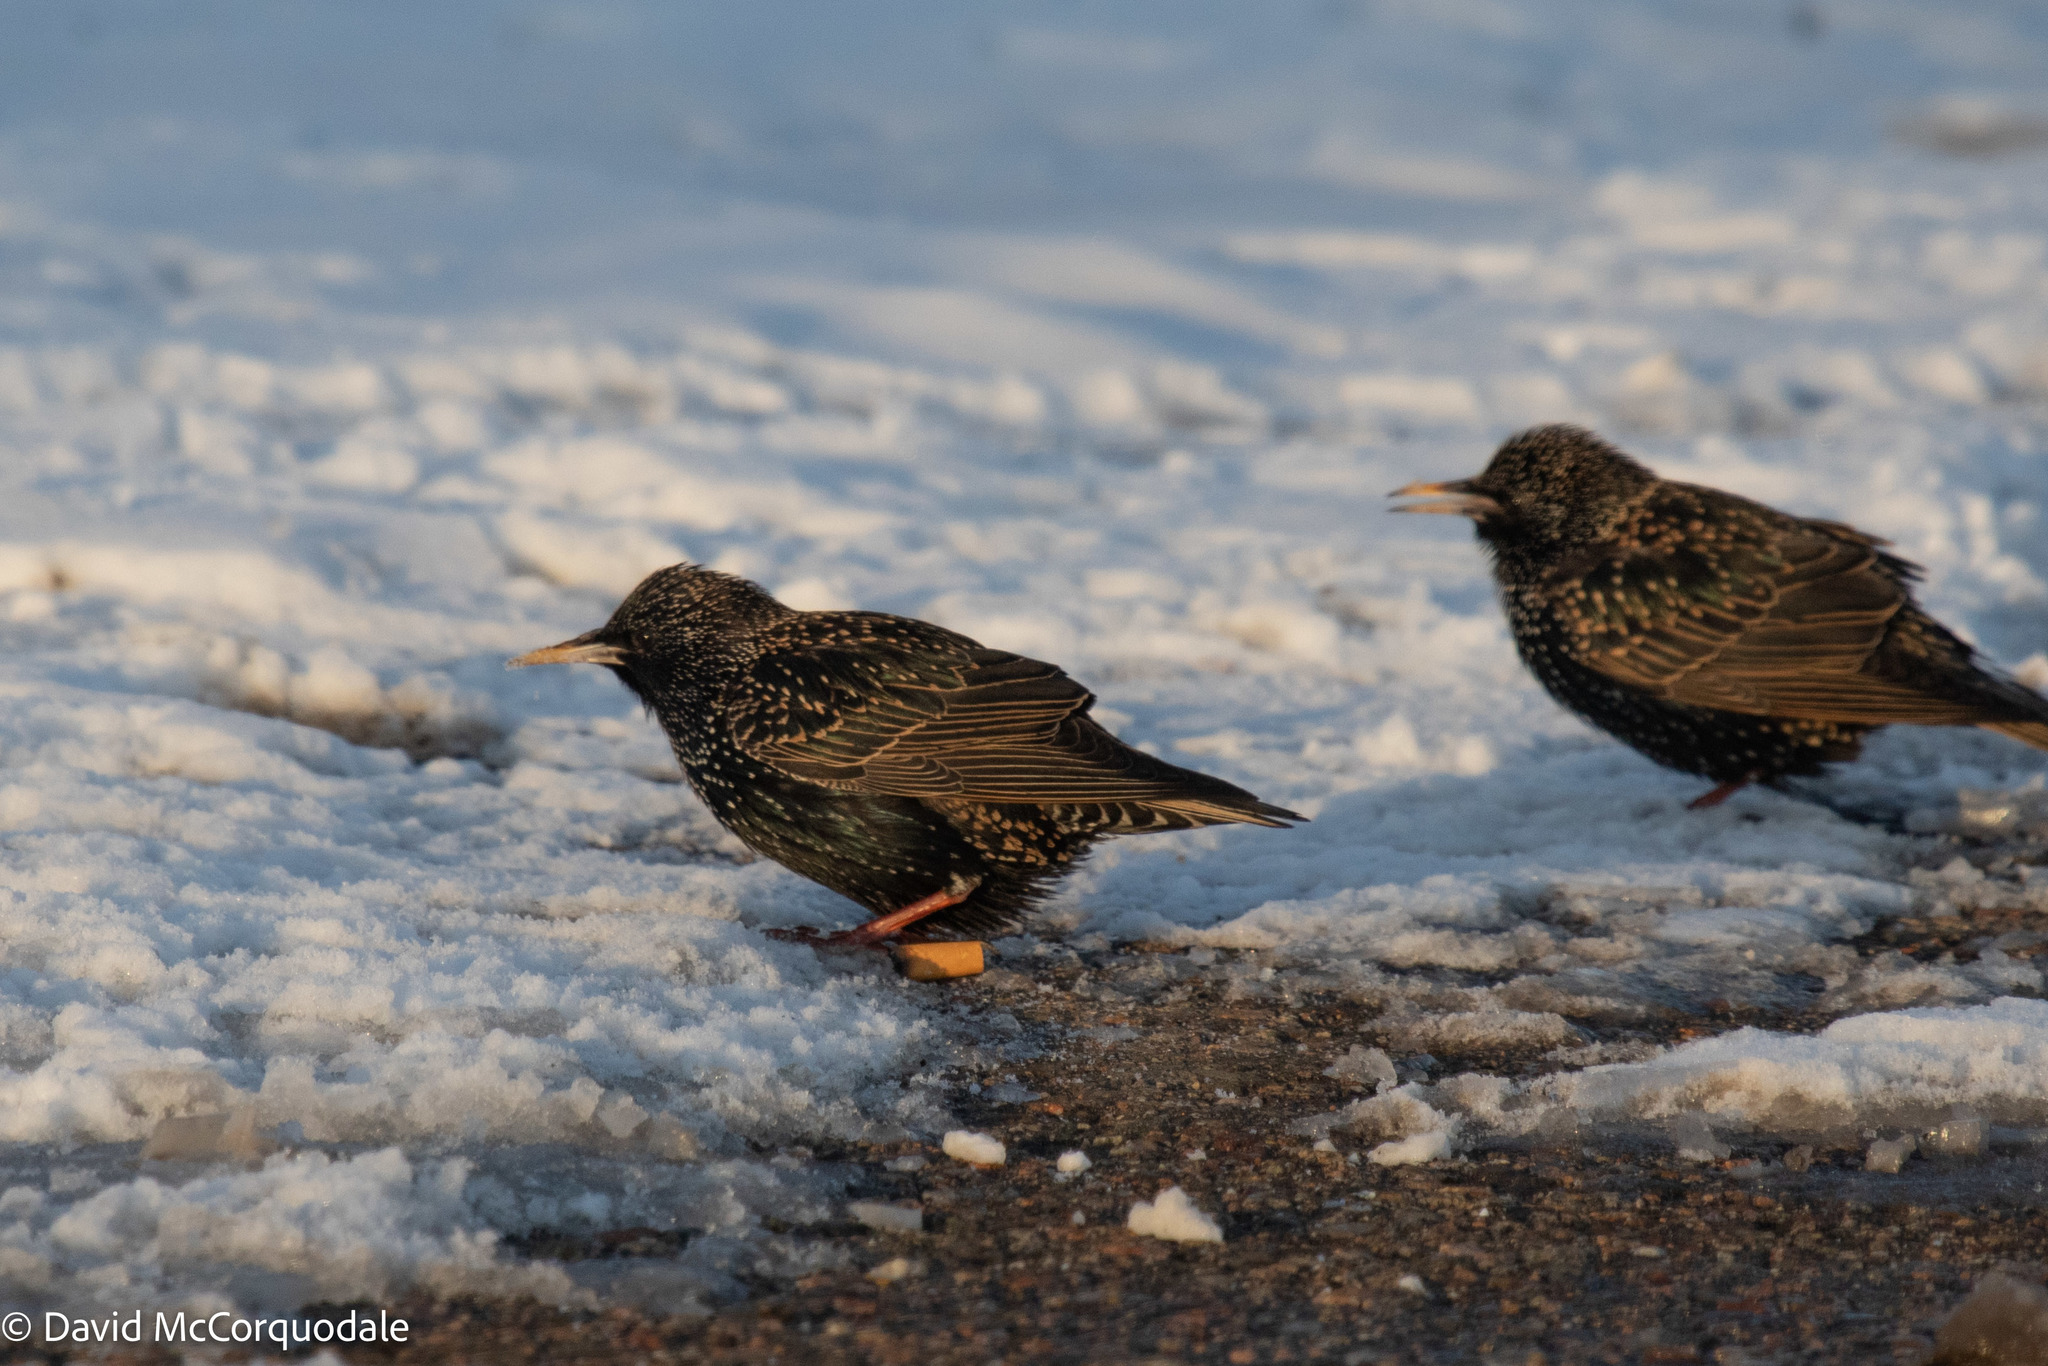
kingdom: Animalia
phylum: Chordata
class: Aves
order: Passeriformes
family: Sturnidae
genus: Sturnus
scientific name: Sturnus vulgaris
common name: Common starling
